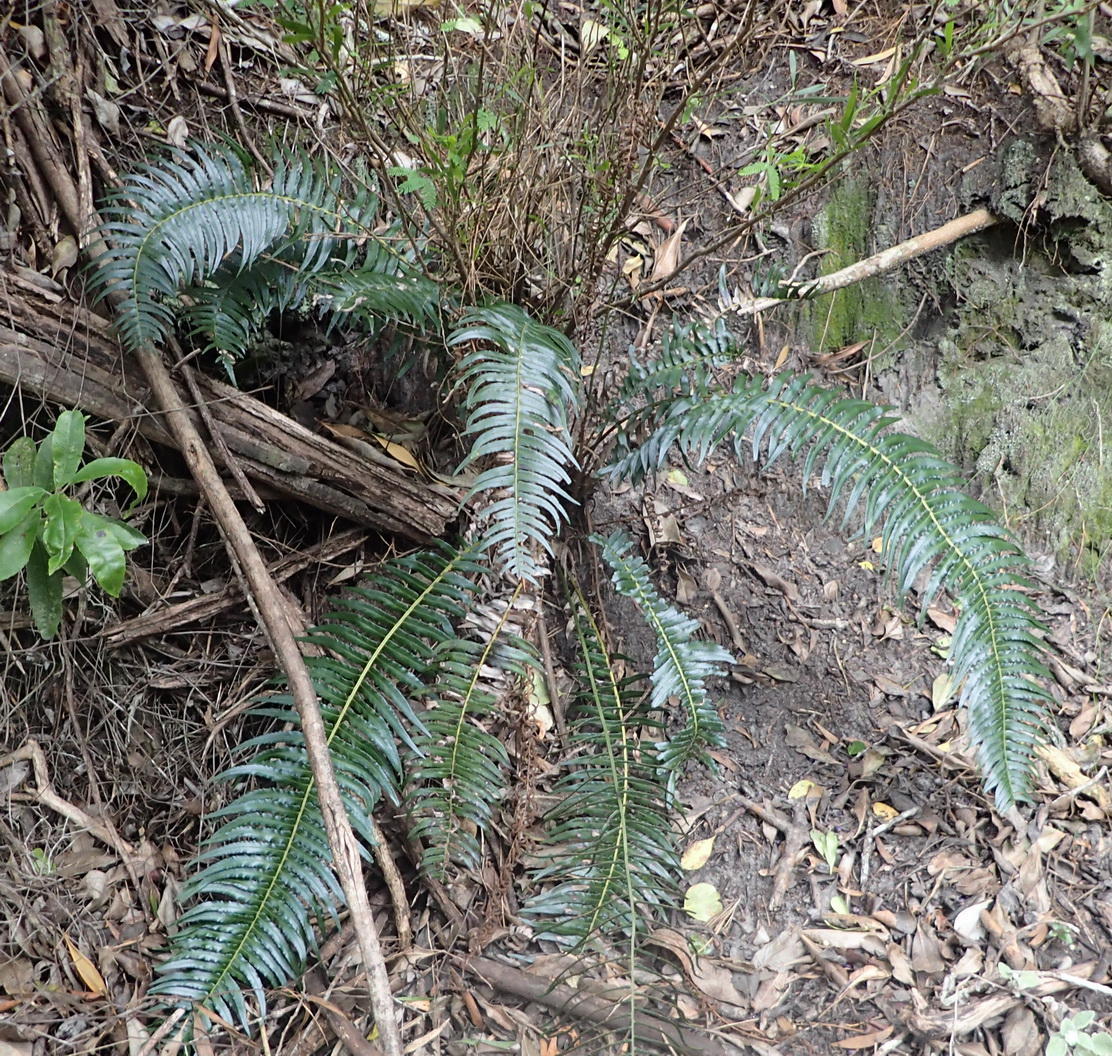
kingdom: Plantae
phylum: Tracheophyta
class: Polypodiopsida
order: Polypodiales
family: Blechnaceae
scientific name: Blechnaceae
